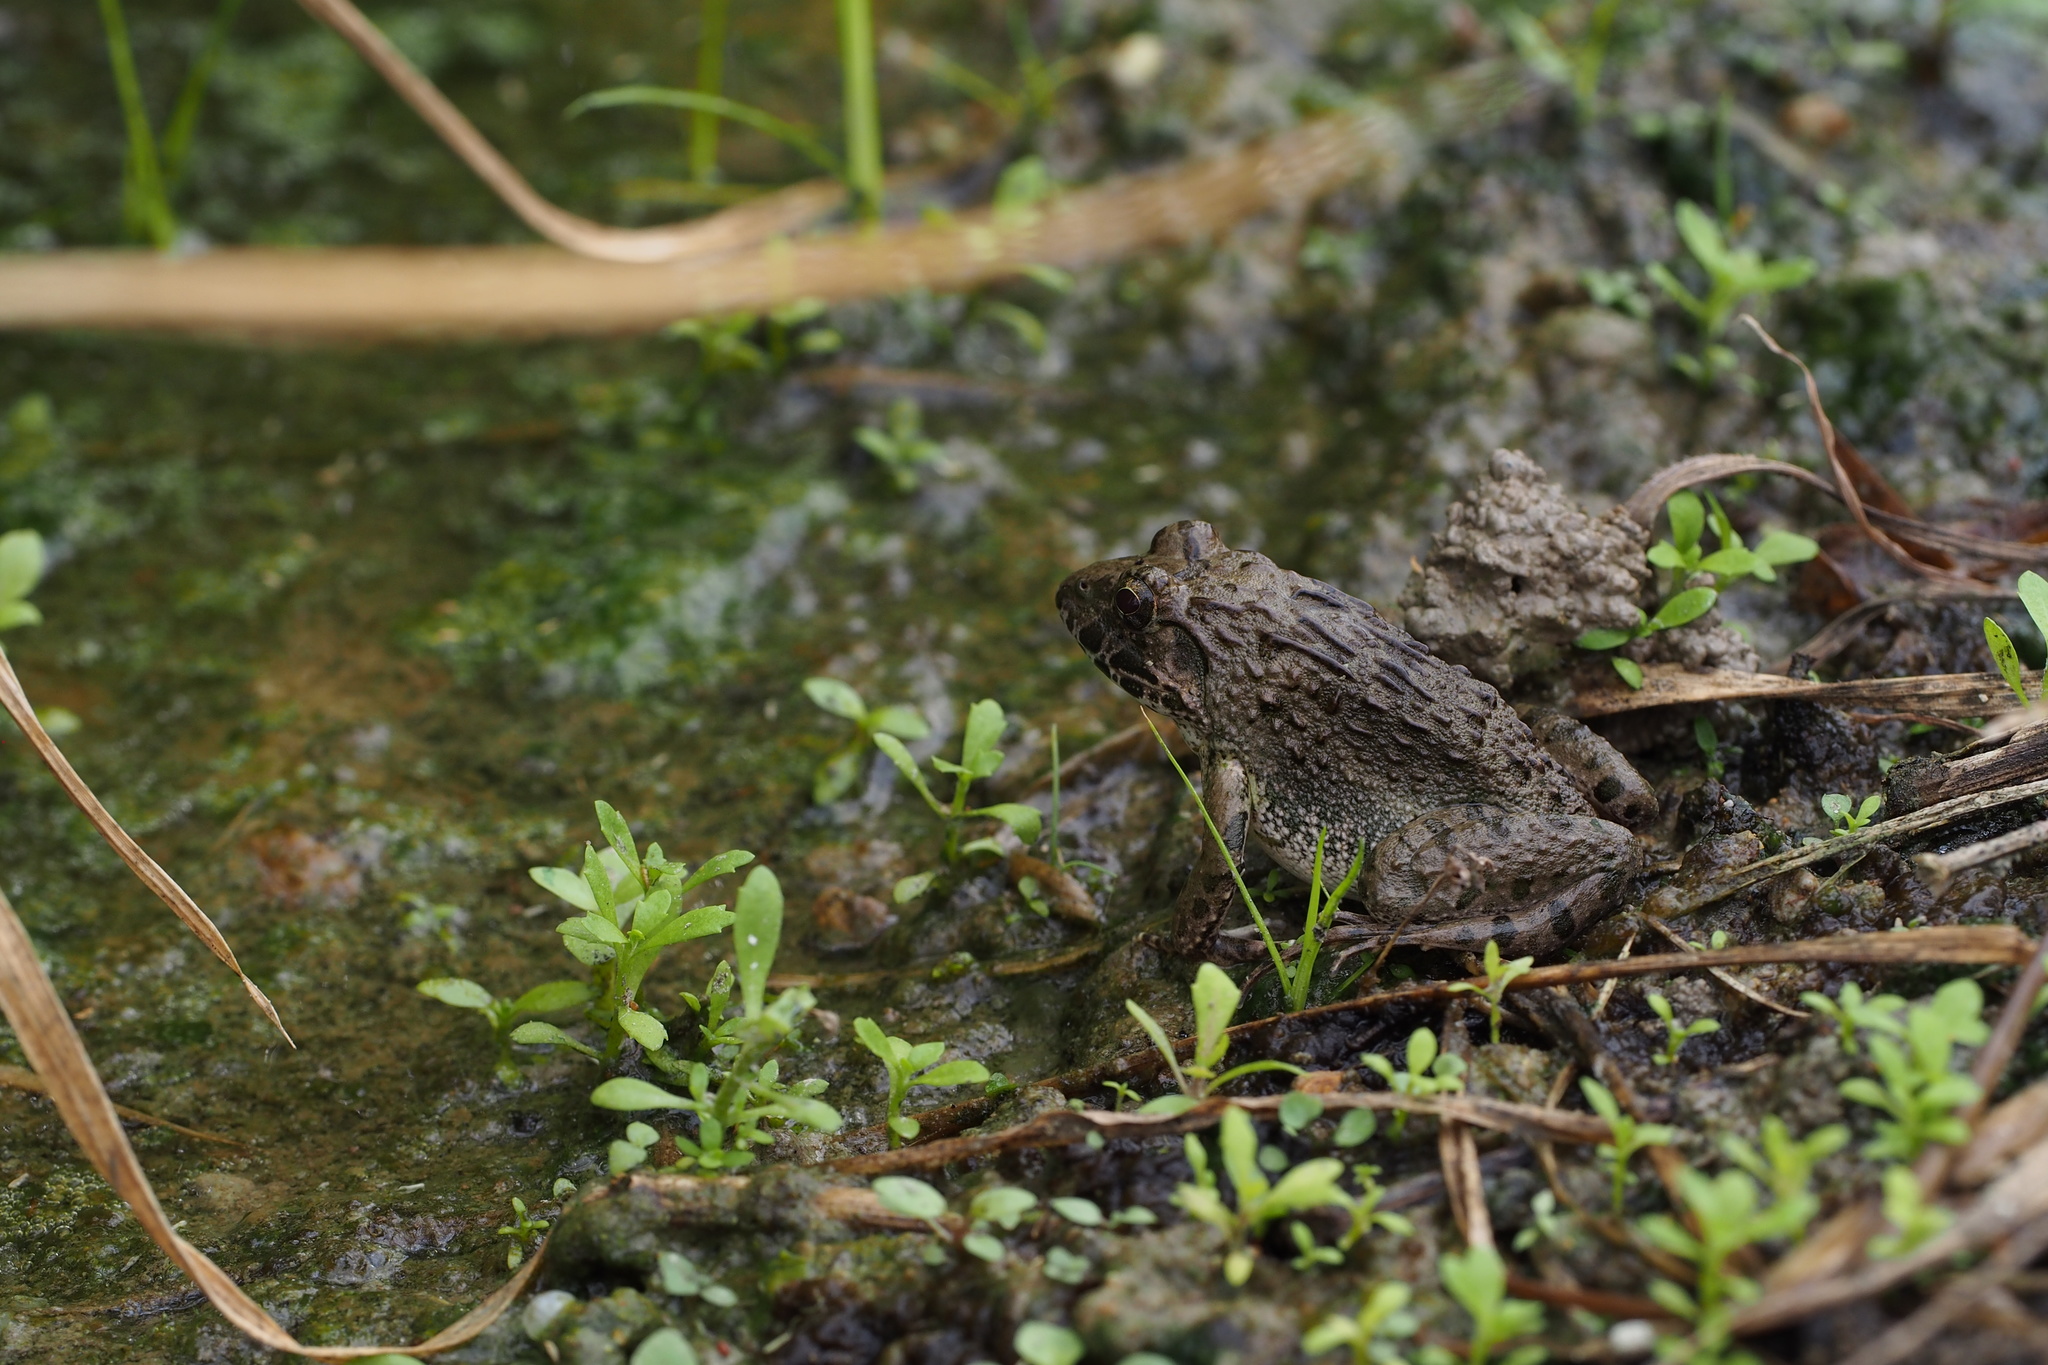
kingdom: Animalia
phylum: Chordata
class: Amphibia
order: Anura
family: Ranidae
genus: Glandirana
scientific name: Glandirana rugosa
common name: Japanese wrinkled frog
